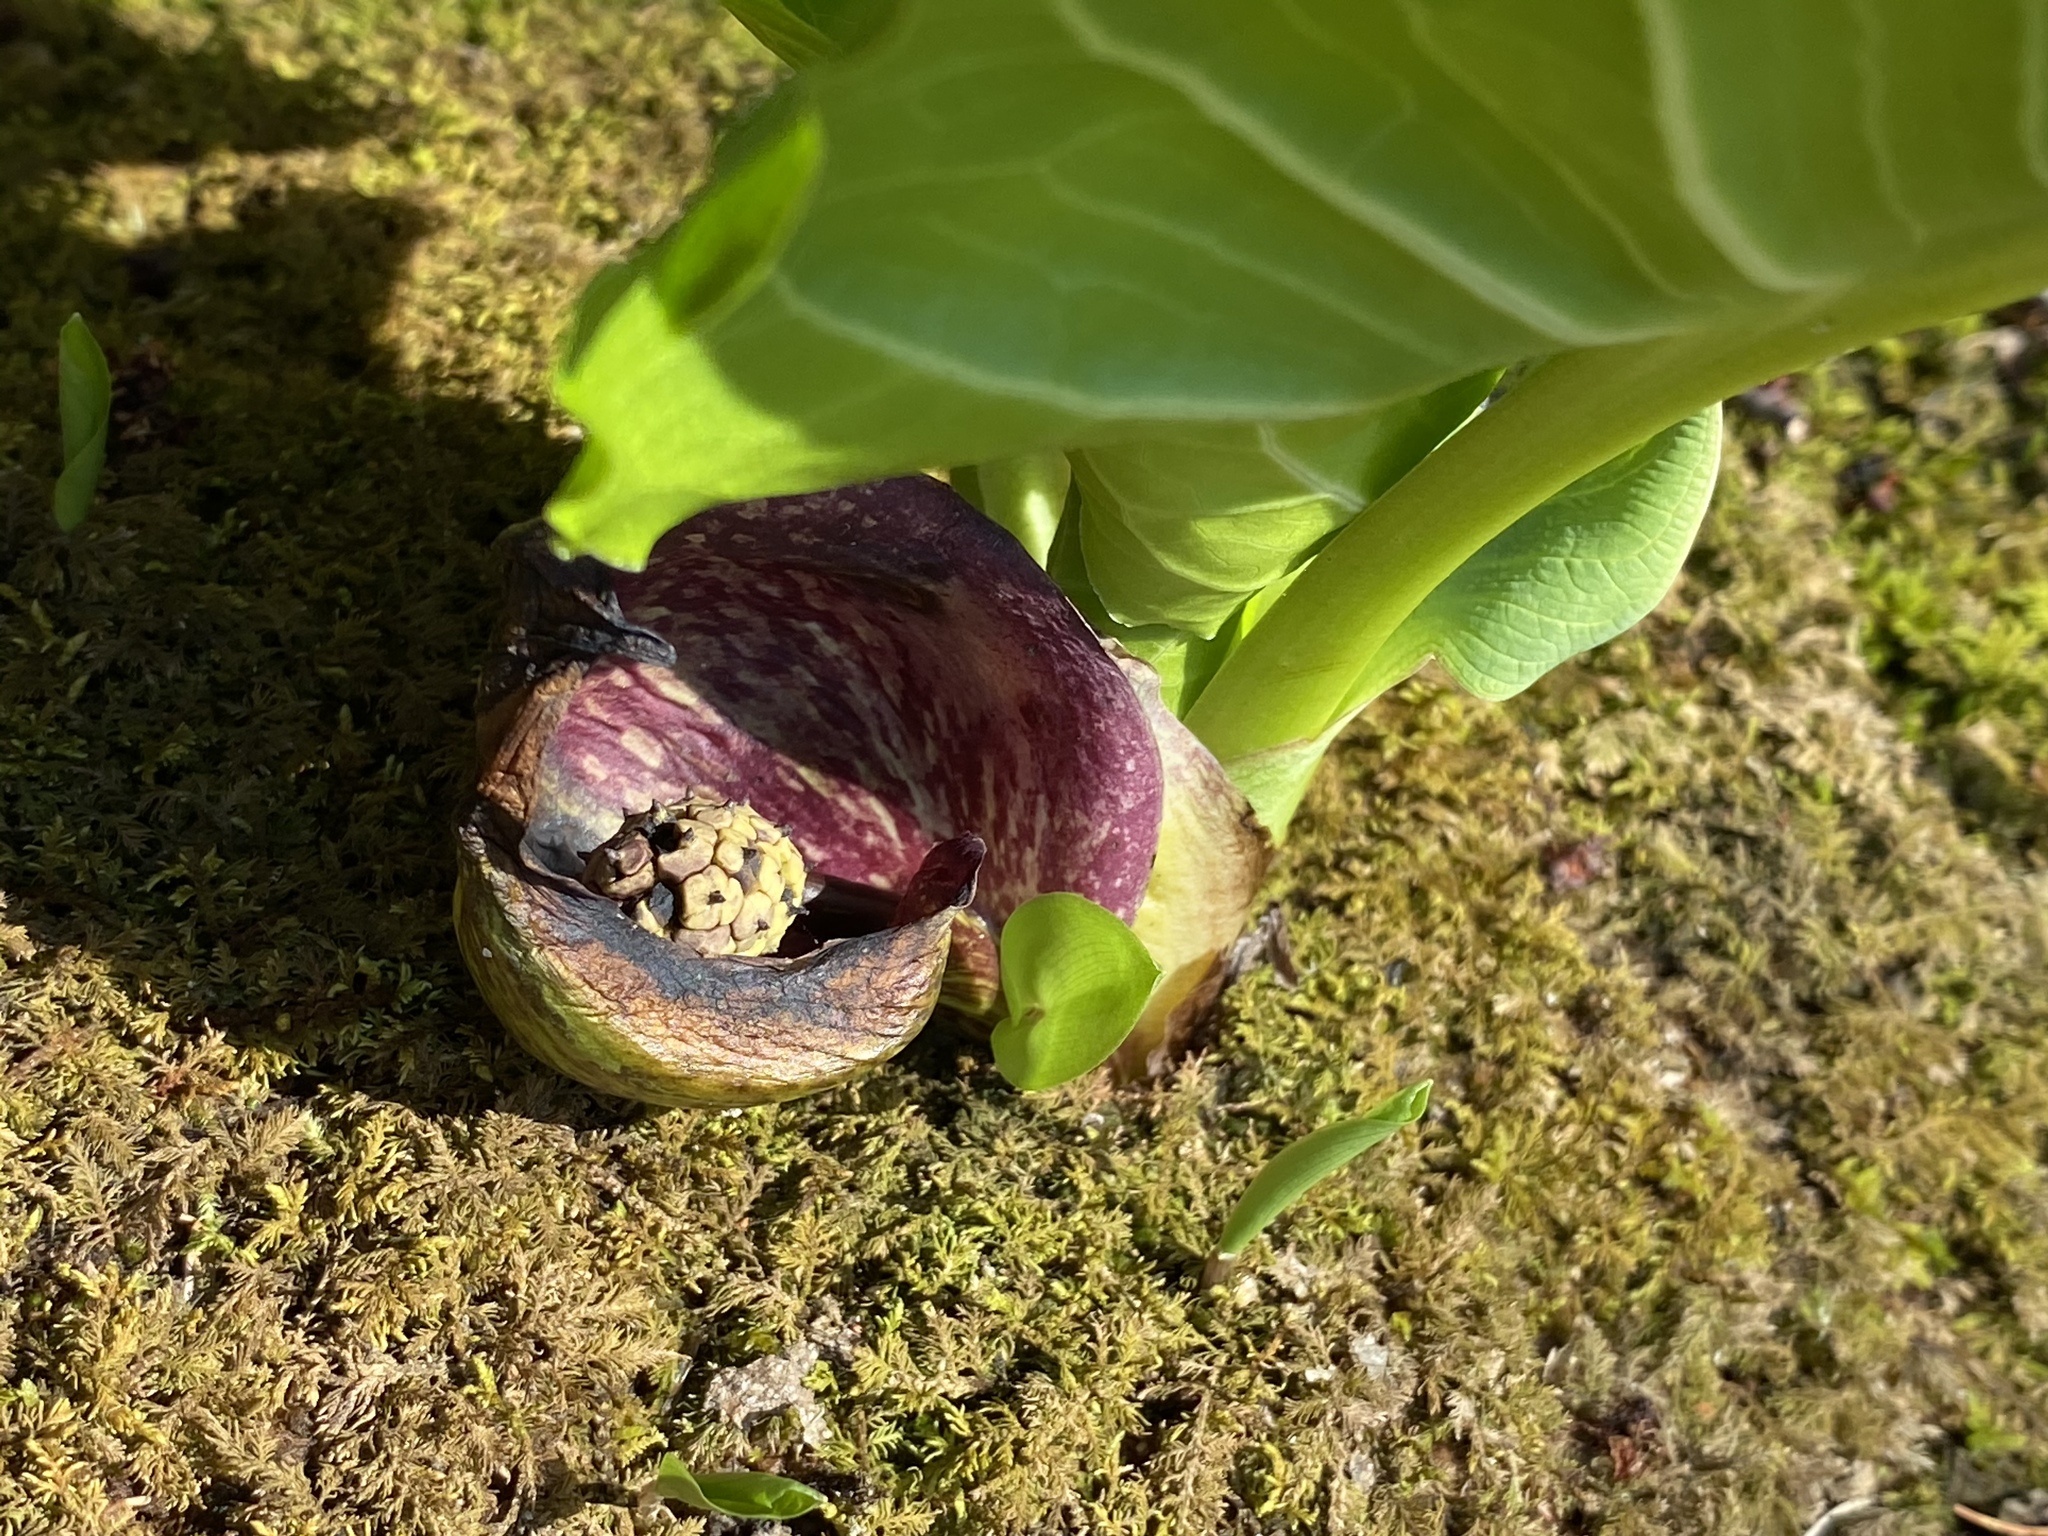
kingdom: Plantae
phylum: Tracheophyta
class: Liliopsida
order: Alismatales
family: Araceae
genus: Symplocarpus
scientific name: Symplocarpus foetidus
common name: Eastern skunk cabbage
